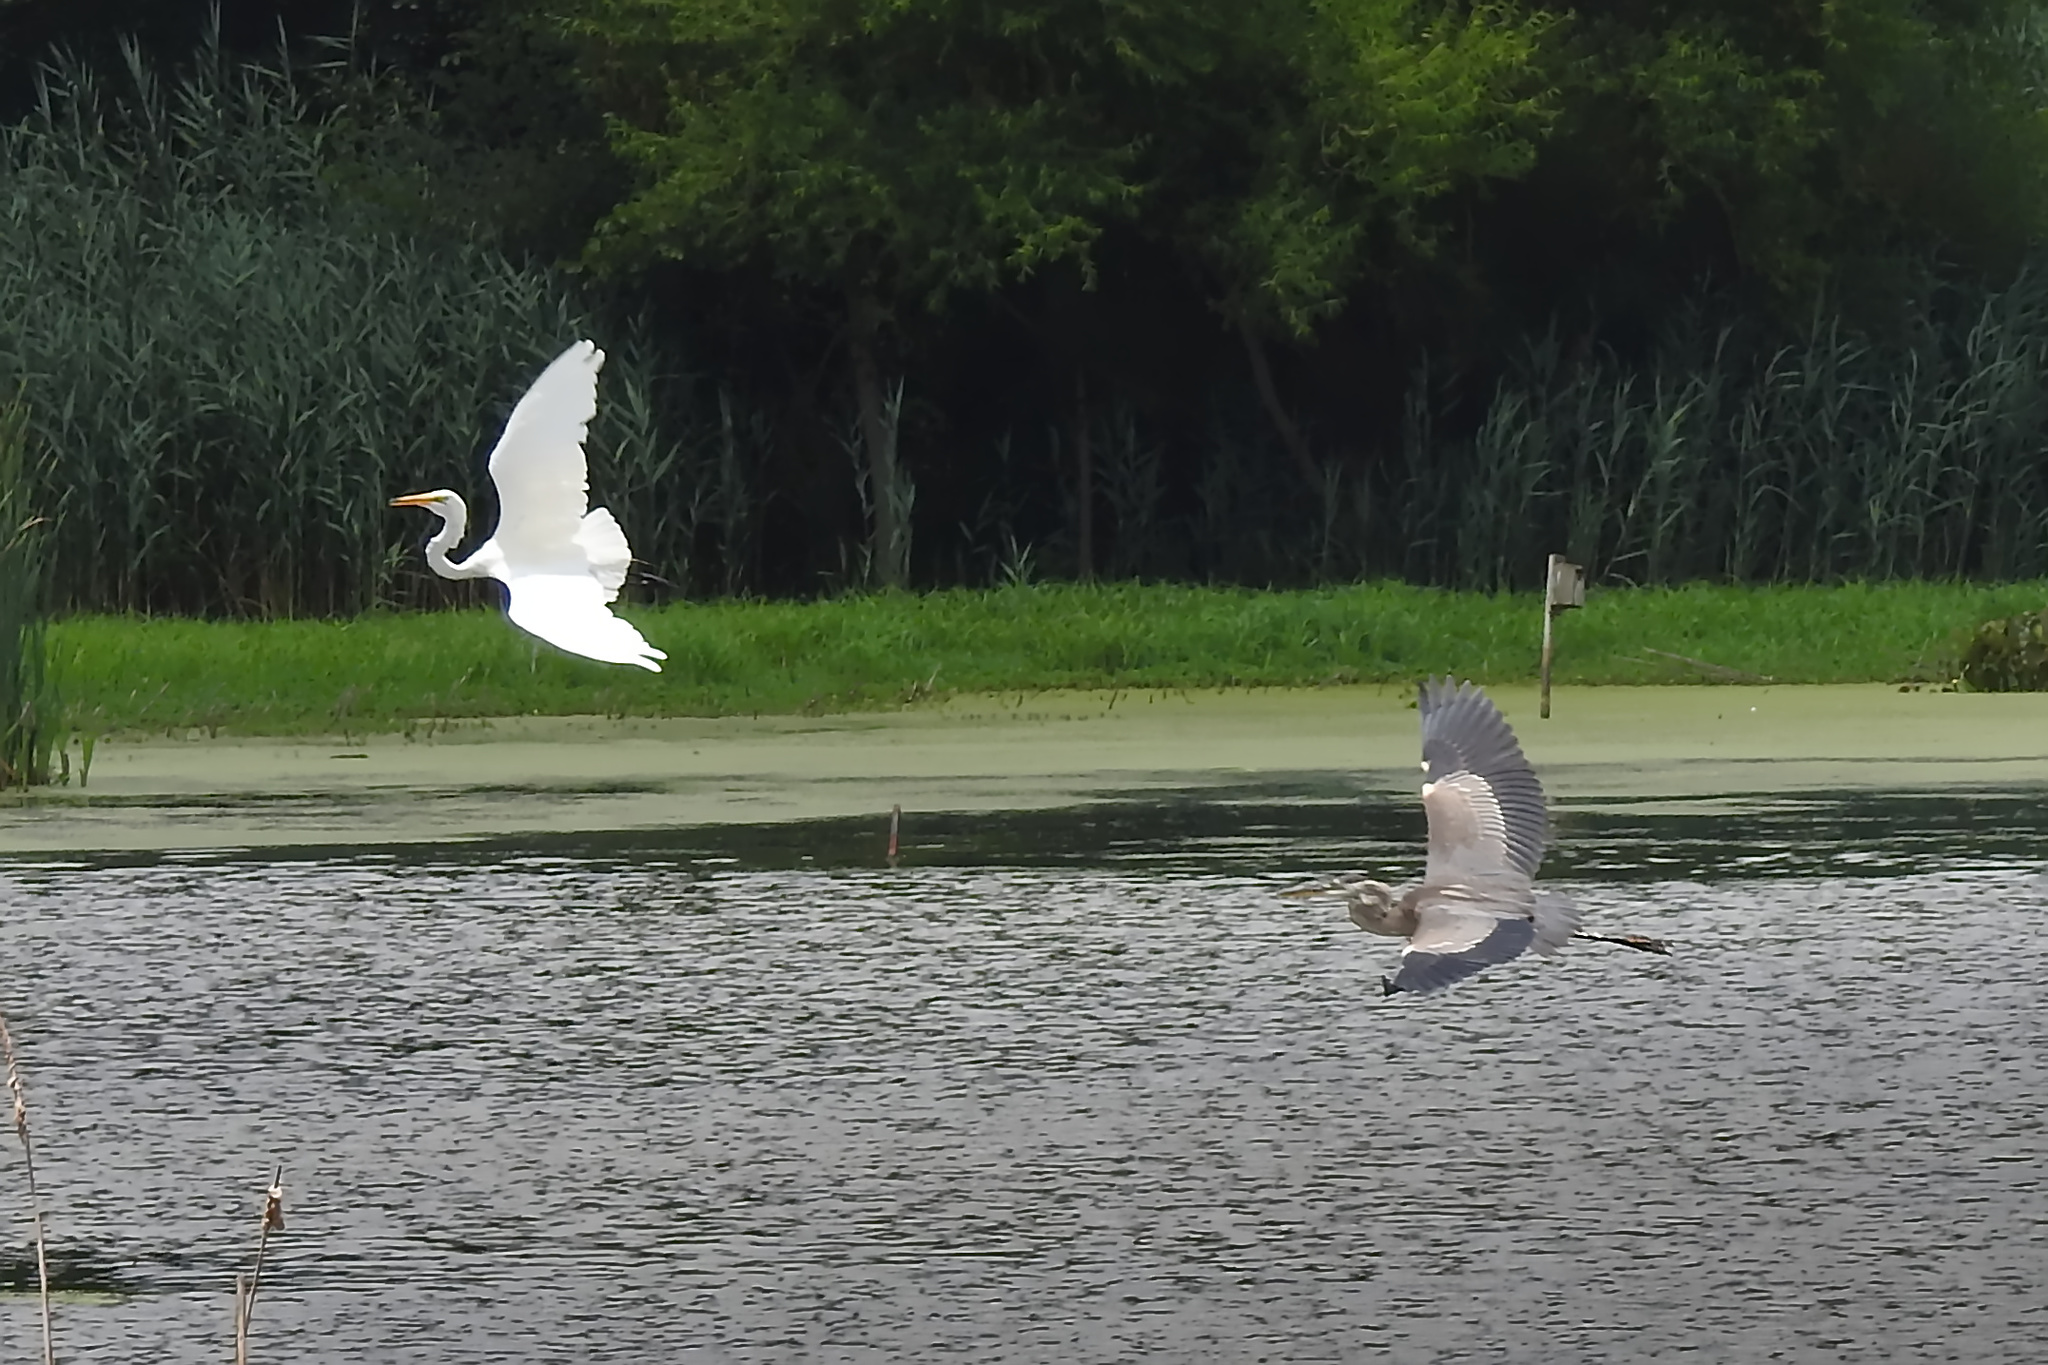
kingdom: Animalia
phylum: Chordata
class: Aves
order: Pelecaniformes
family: Ardeidae
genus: Ardea
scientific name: Ardea herodias
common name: Great blue heron
